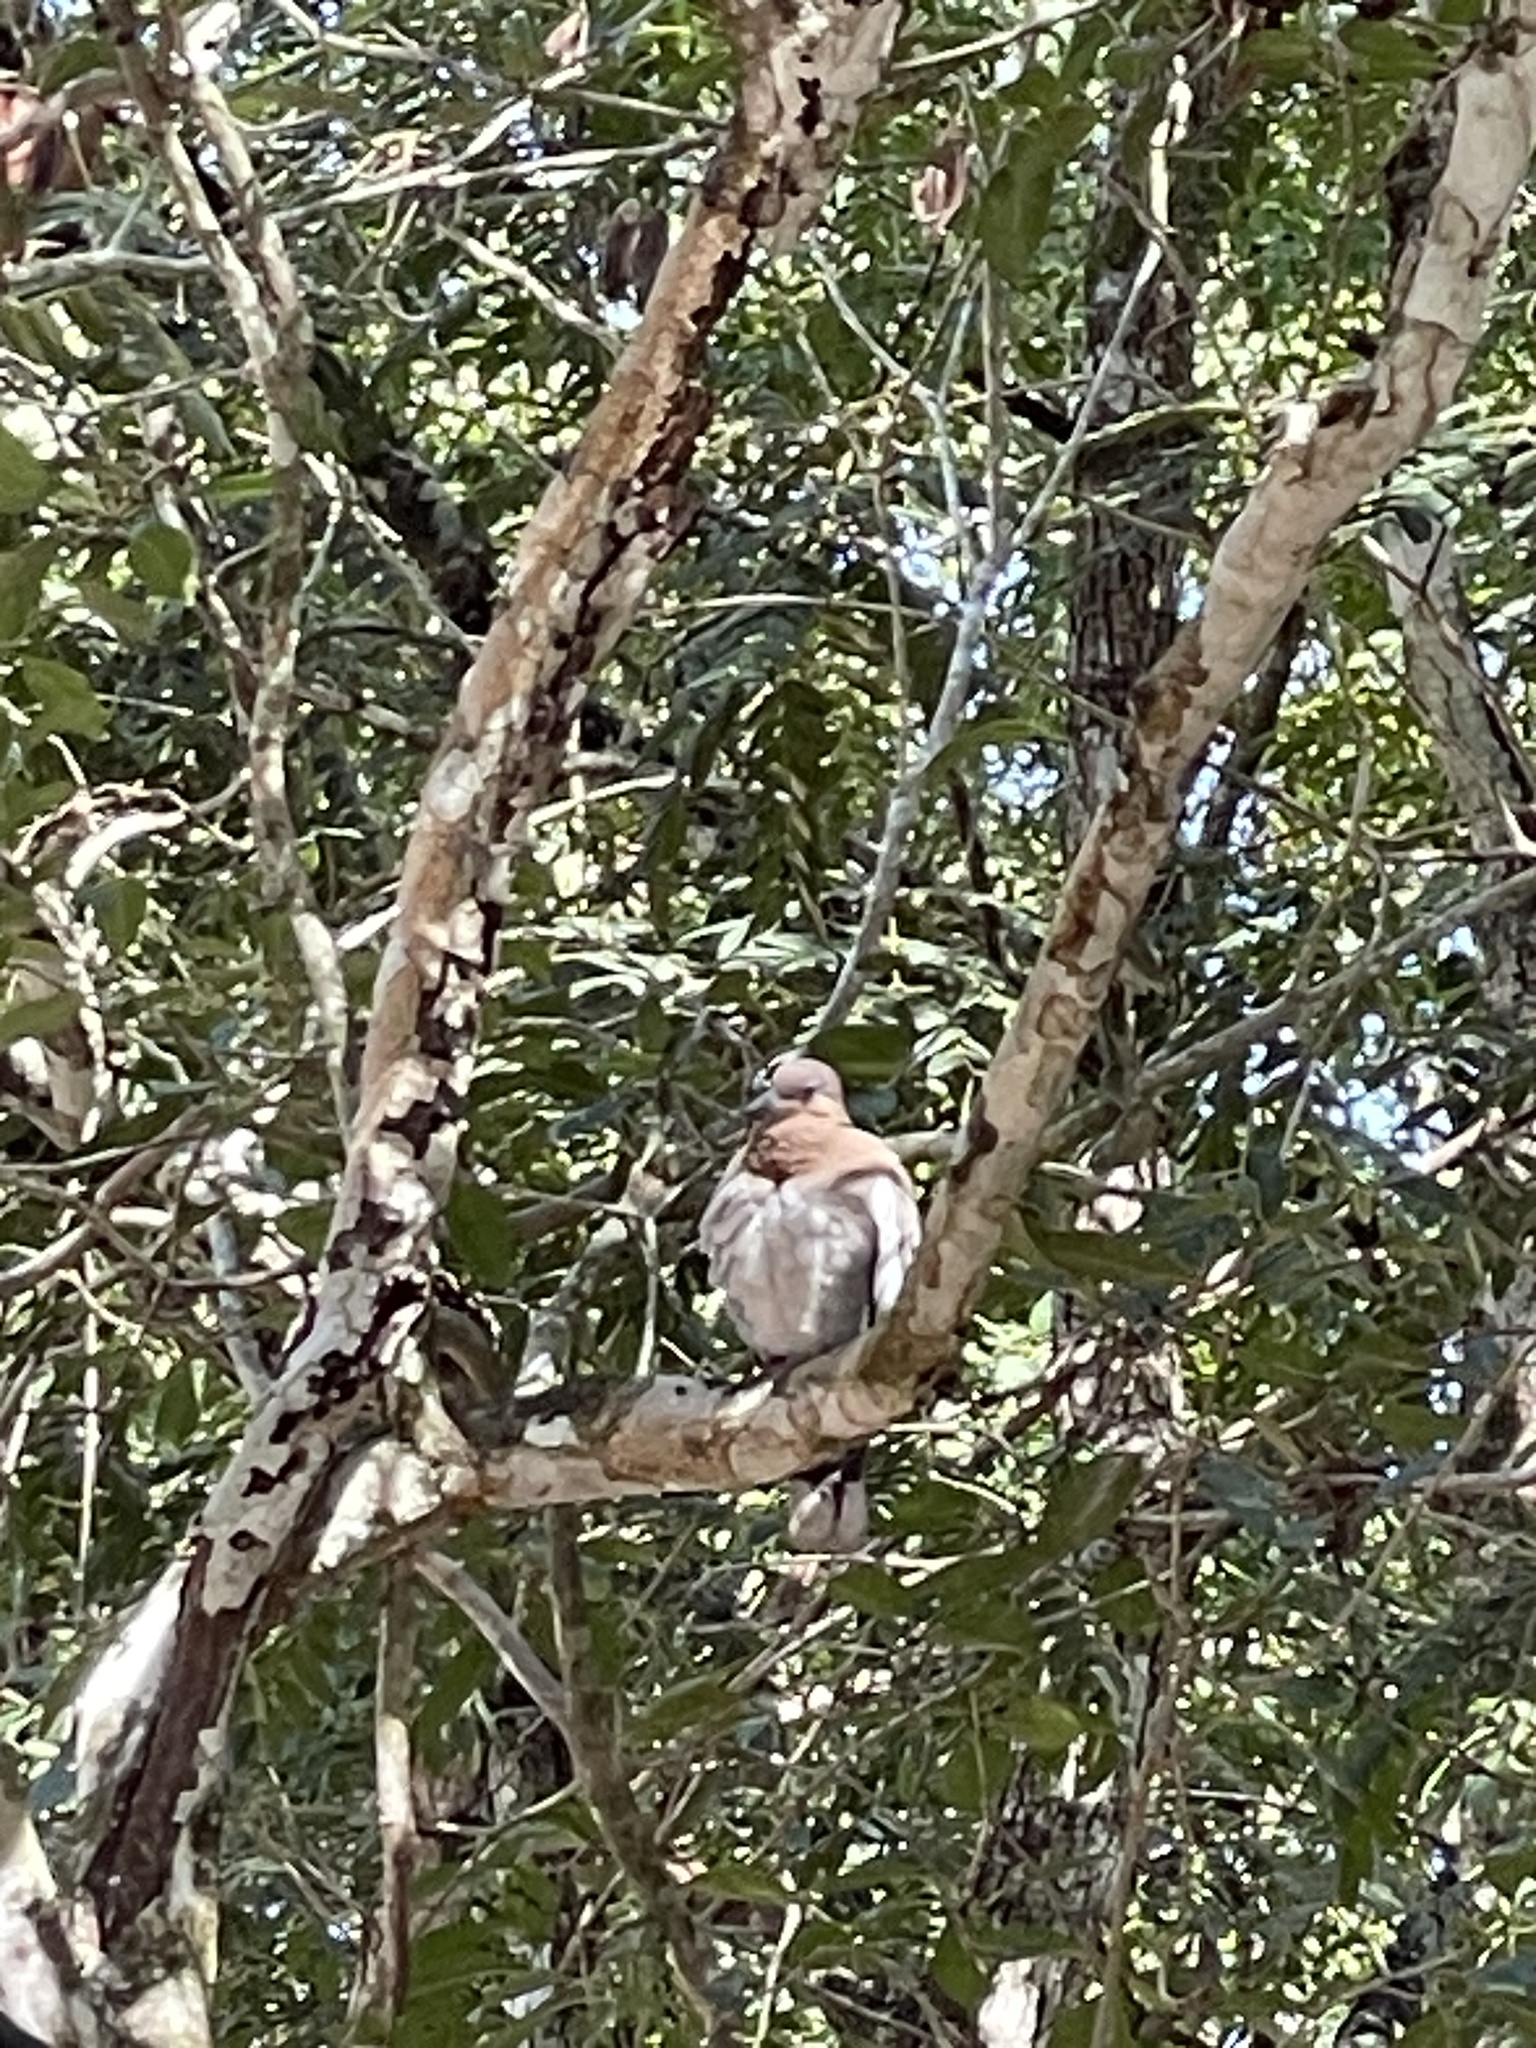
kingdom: Animalia
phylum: Chordata
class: Aves
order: Columbiformes
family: Columbidae
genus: Zenaida
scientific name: Zenaida asiatica
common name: White-winged dove
